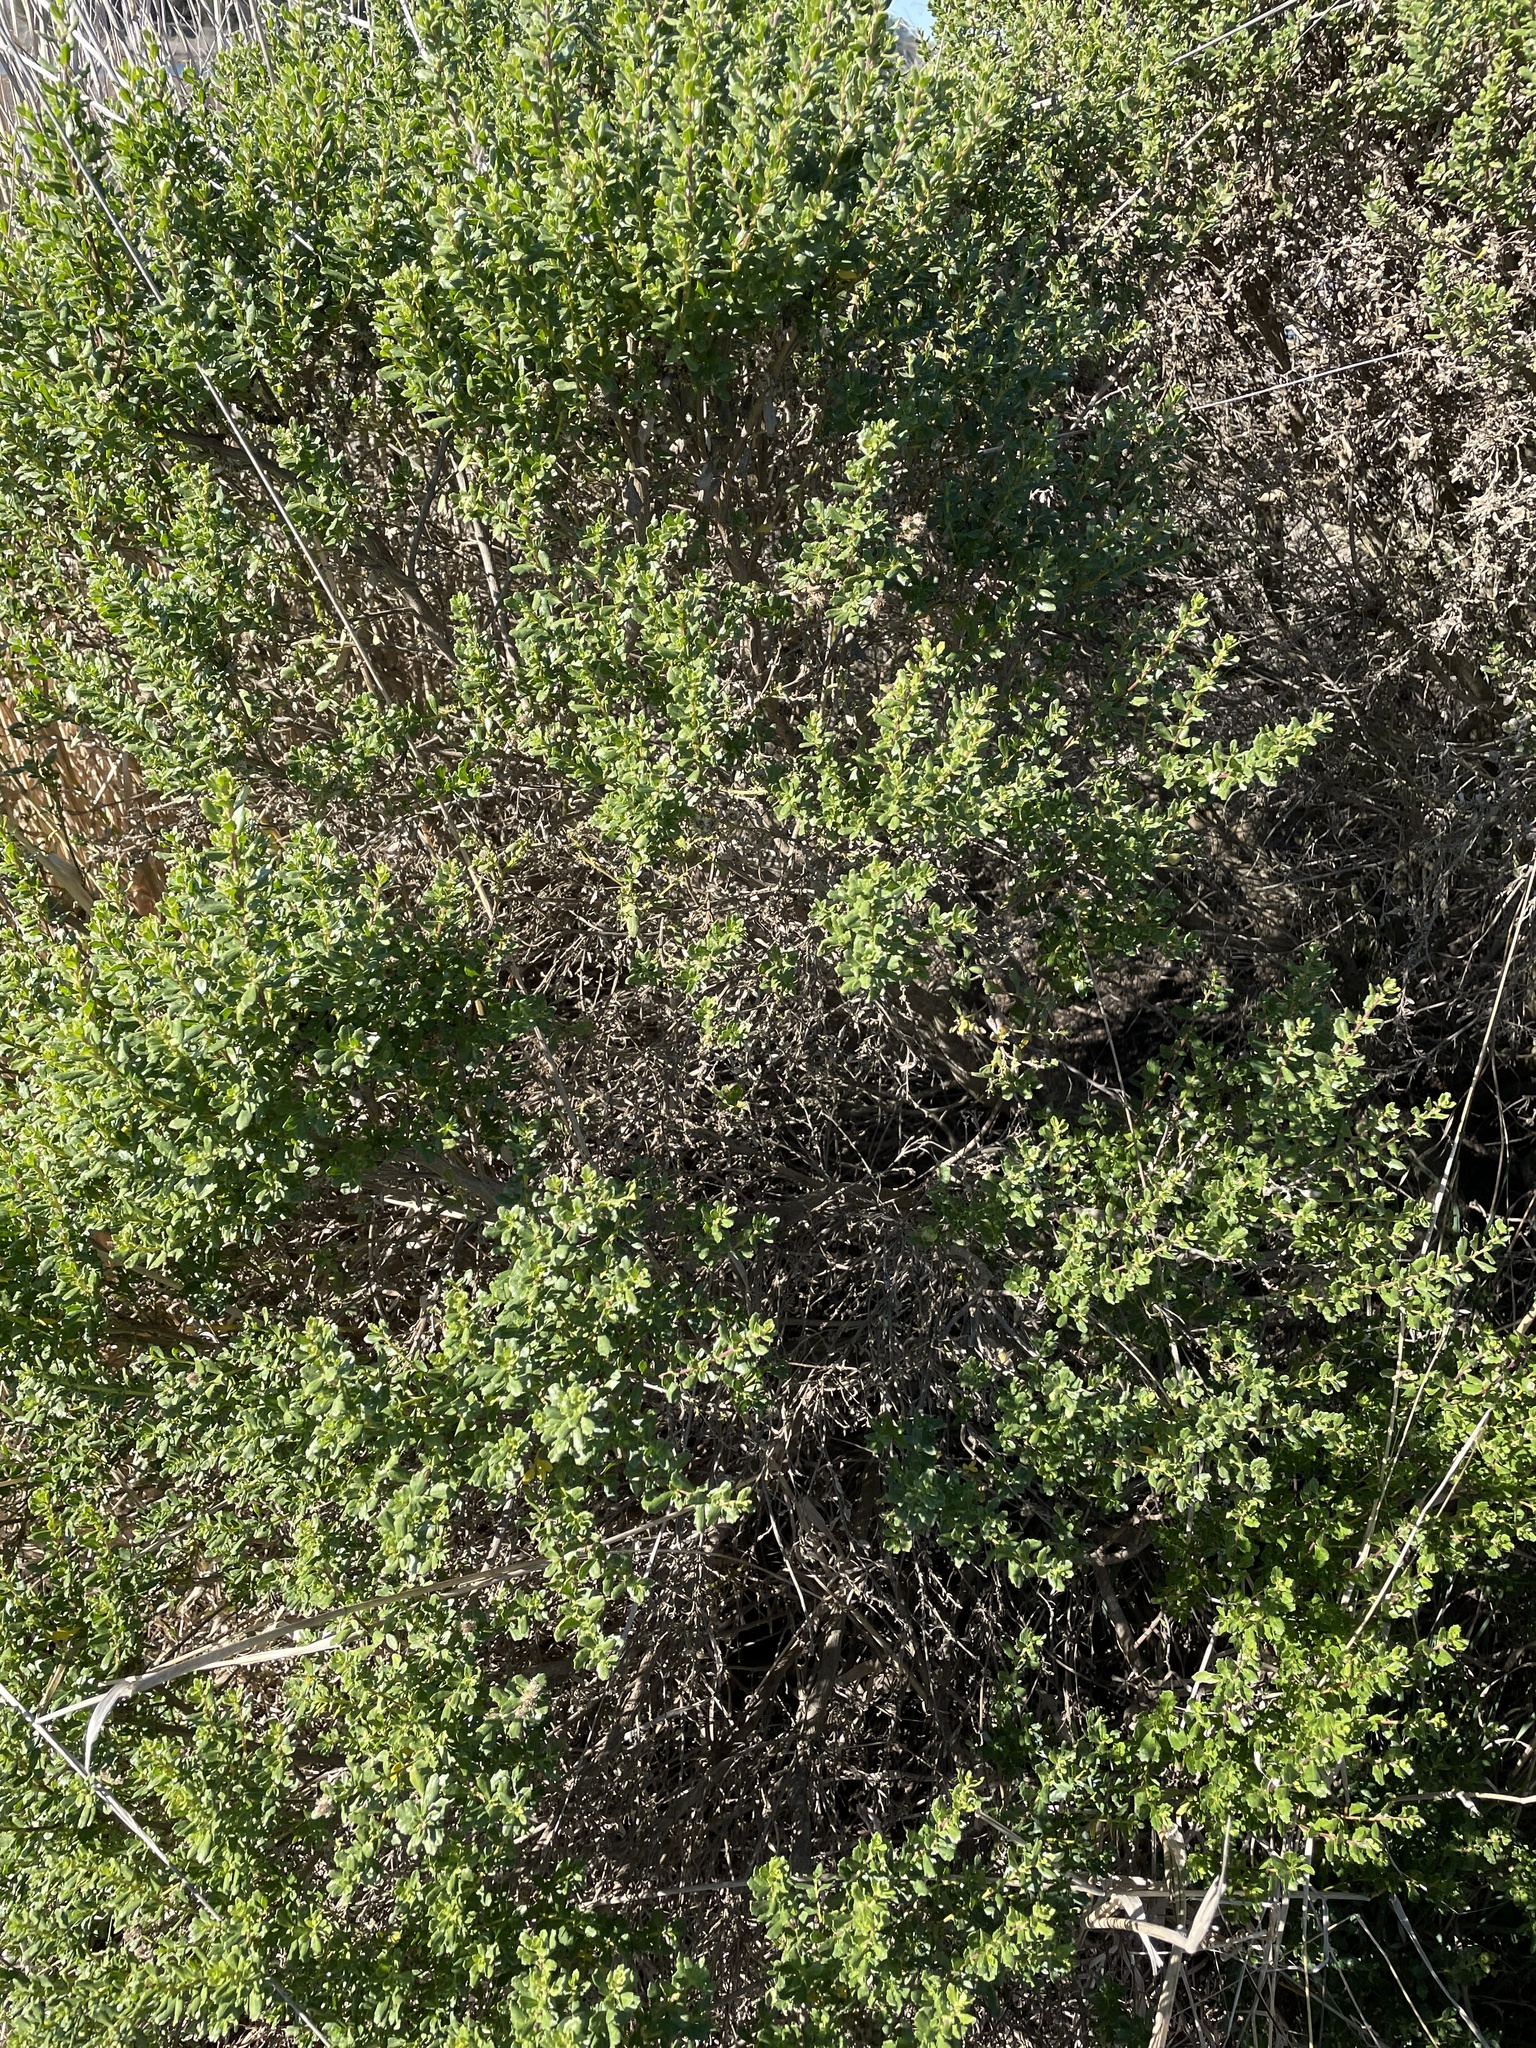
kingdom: Plantae
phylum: Tracheophyta
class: Magnoliopsida
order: Asterales
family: Asteraceae
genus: Baccharis
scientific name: Baccharis pilularis
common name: Coyotebrush
